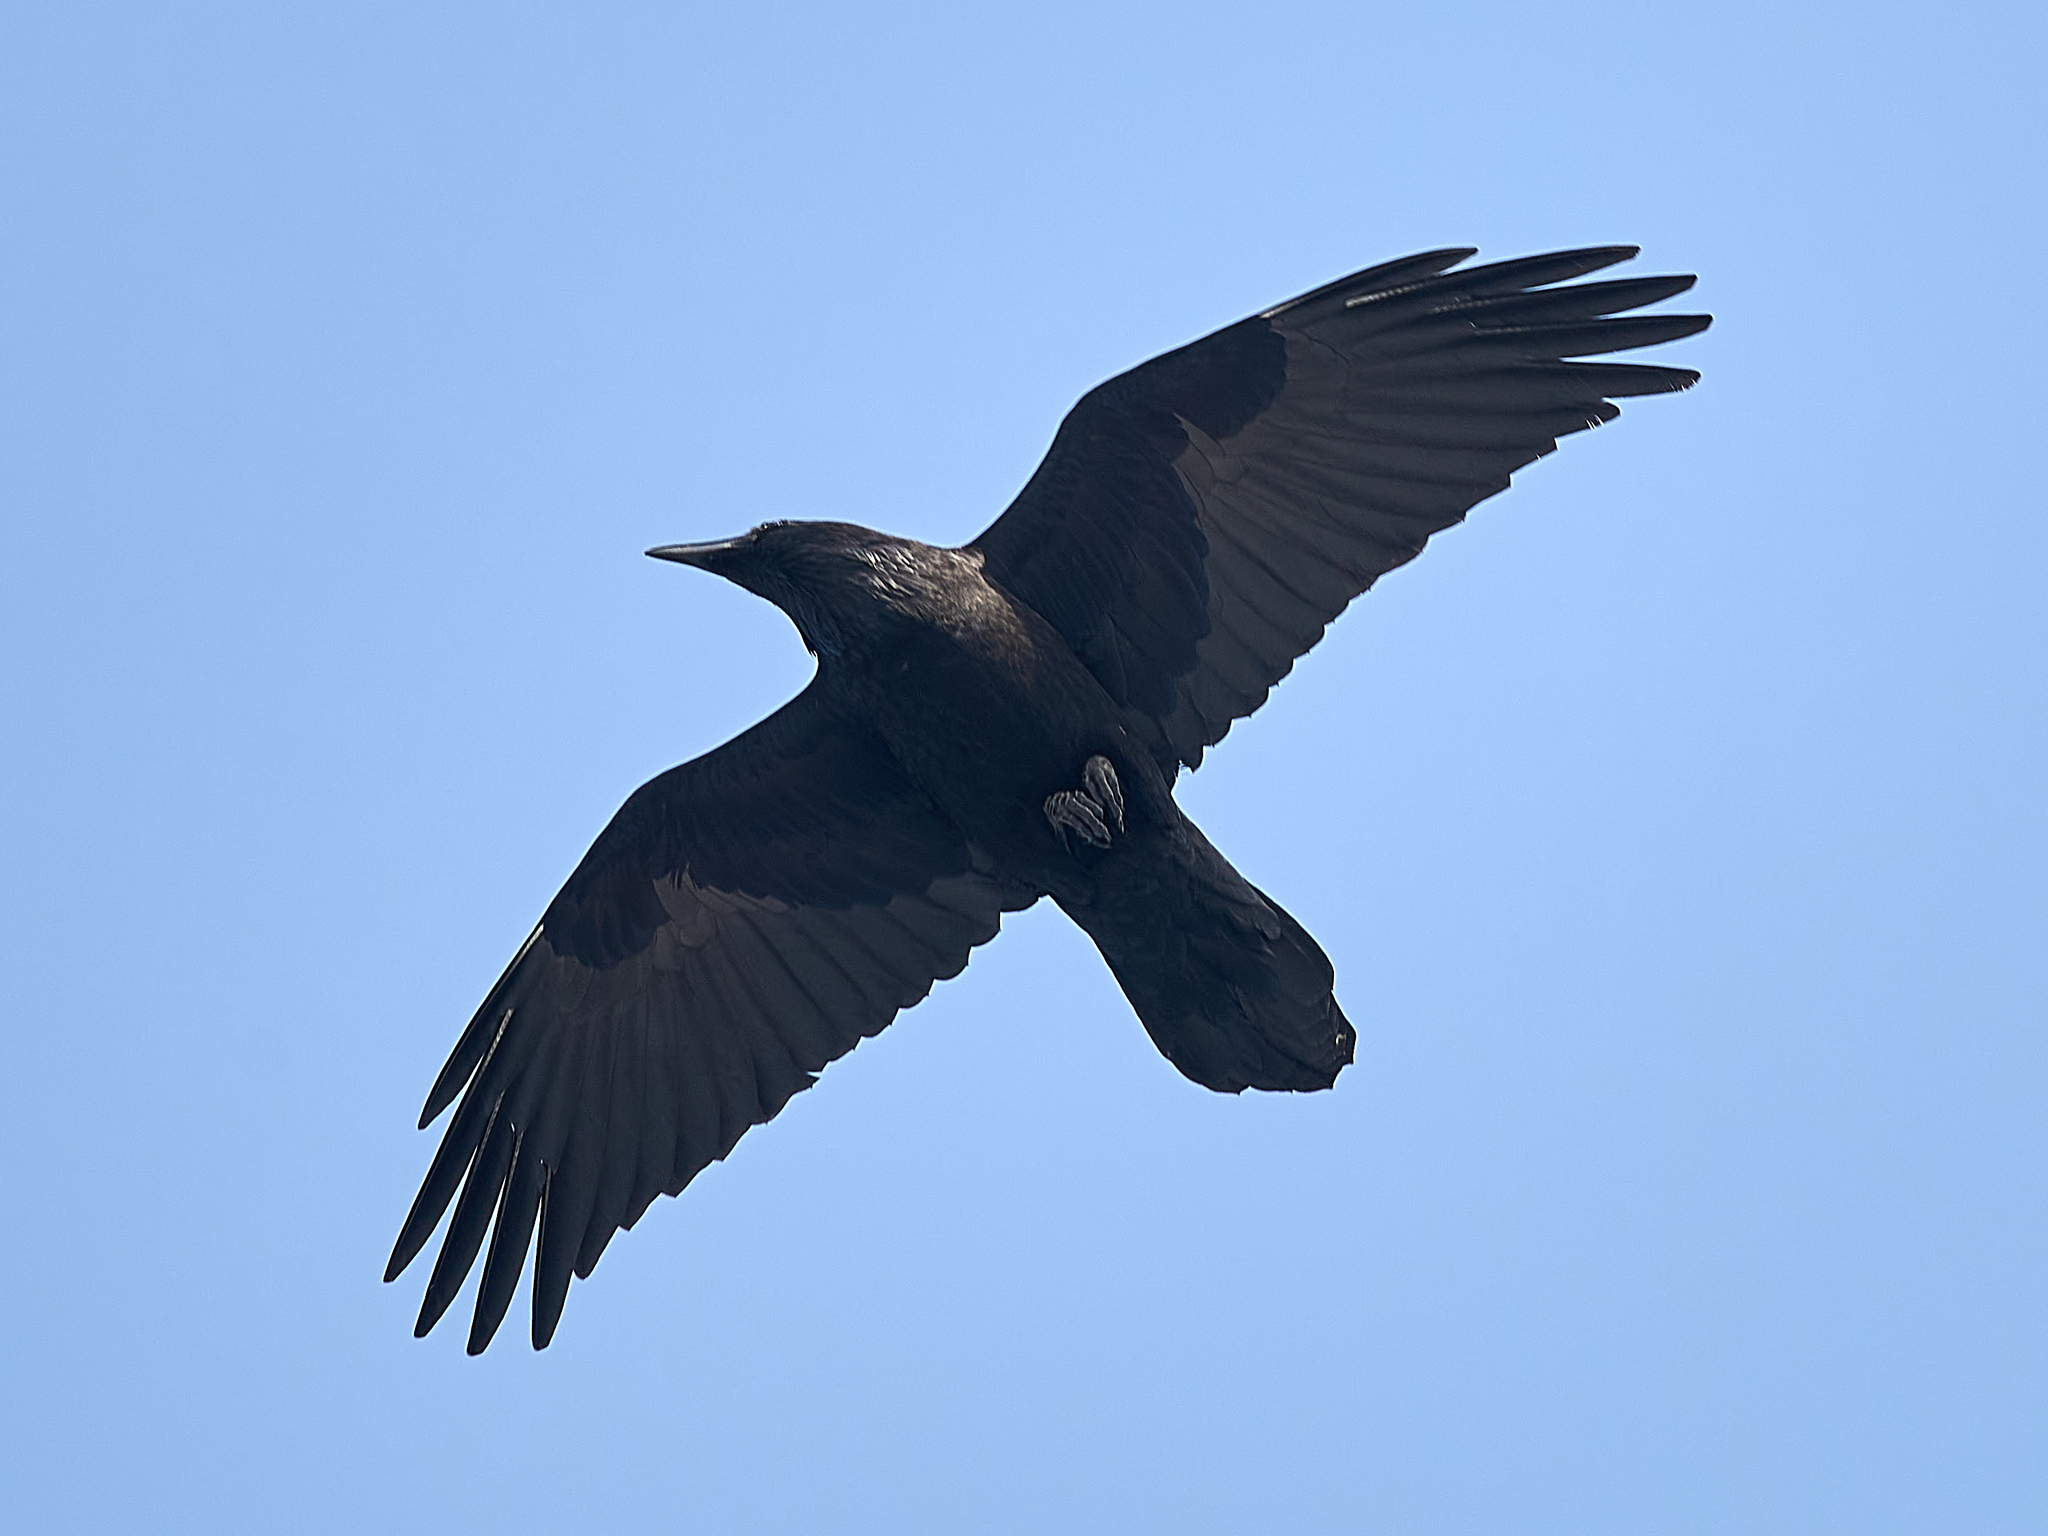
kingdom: Animalia
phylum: Chordata
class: Aves
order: Passeriformes
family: Corvidae
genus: Corvus
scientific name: Corvus corax
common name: Common raven
